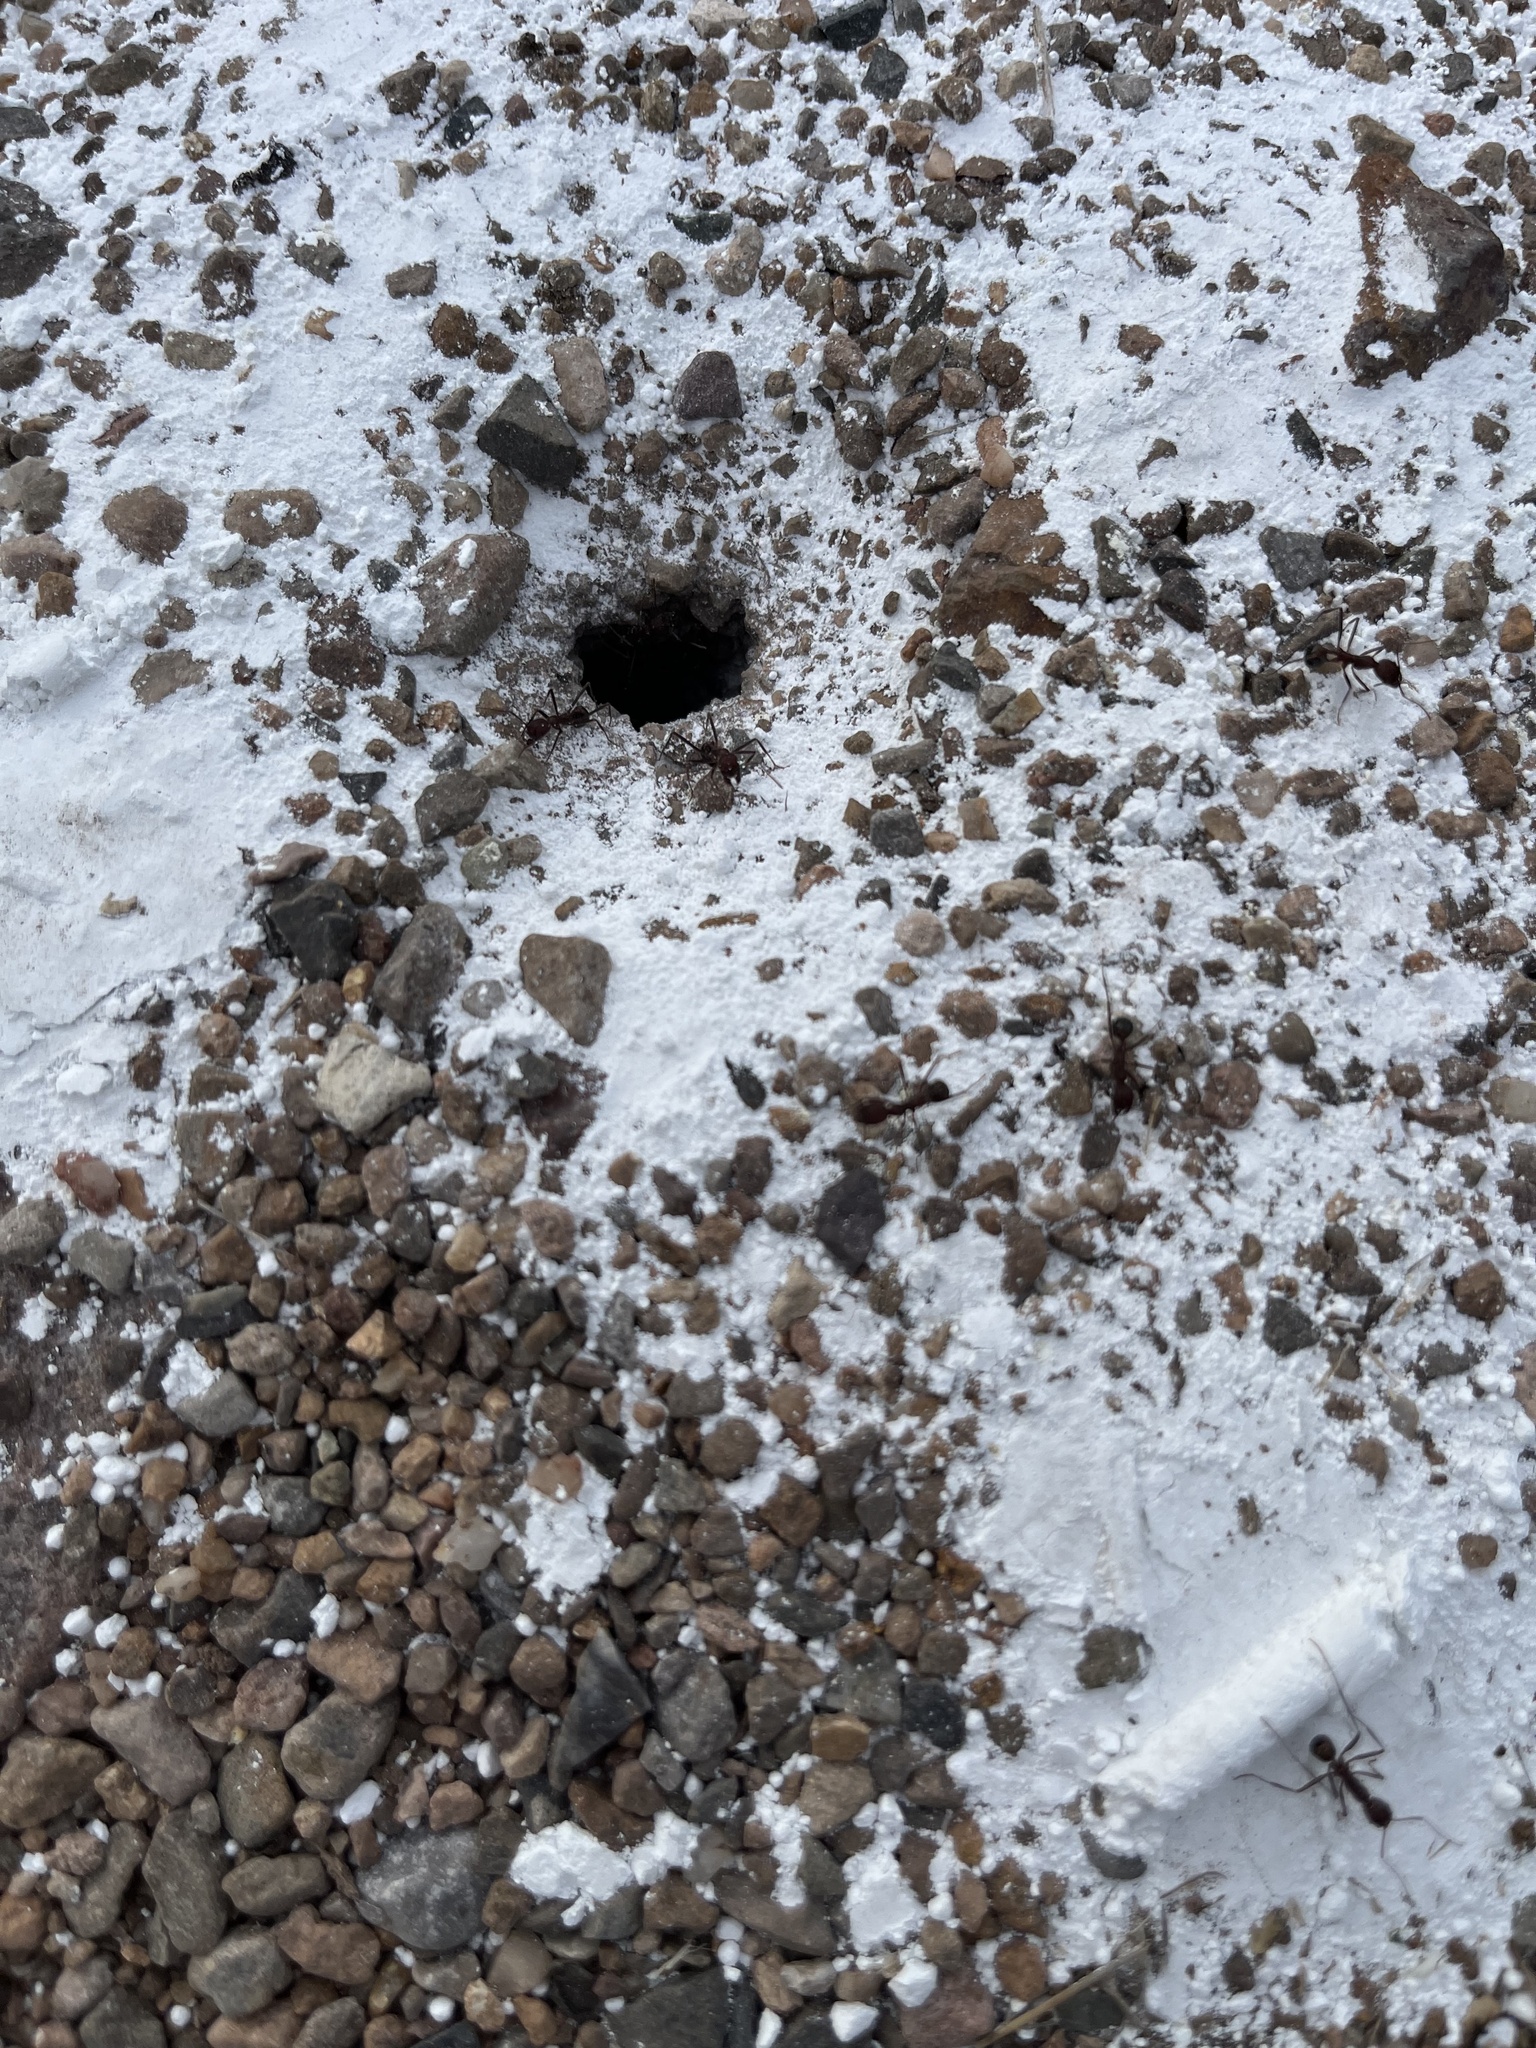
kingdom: Animalia
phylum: Arthropoda
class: Insecta
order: Hymenoptera
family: Formicidae
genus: Novomessor
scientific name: Novomessor albisetosa
